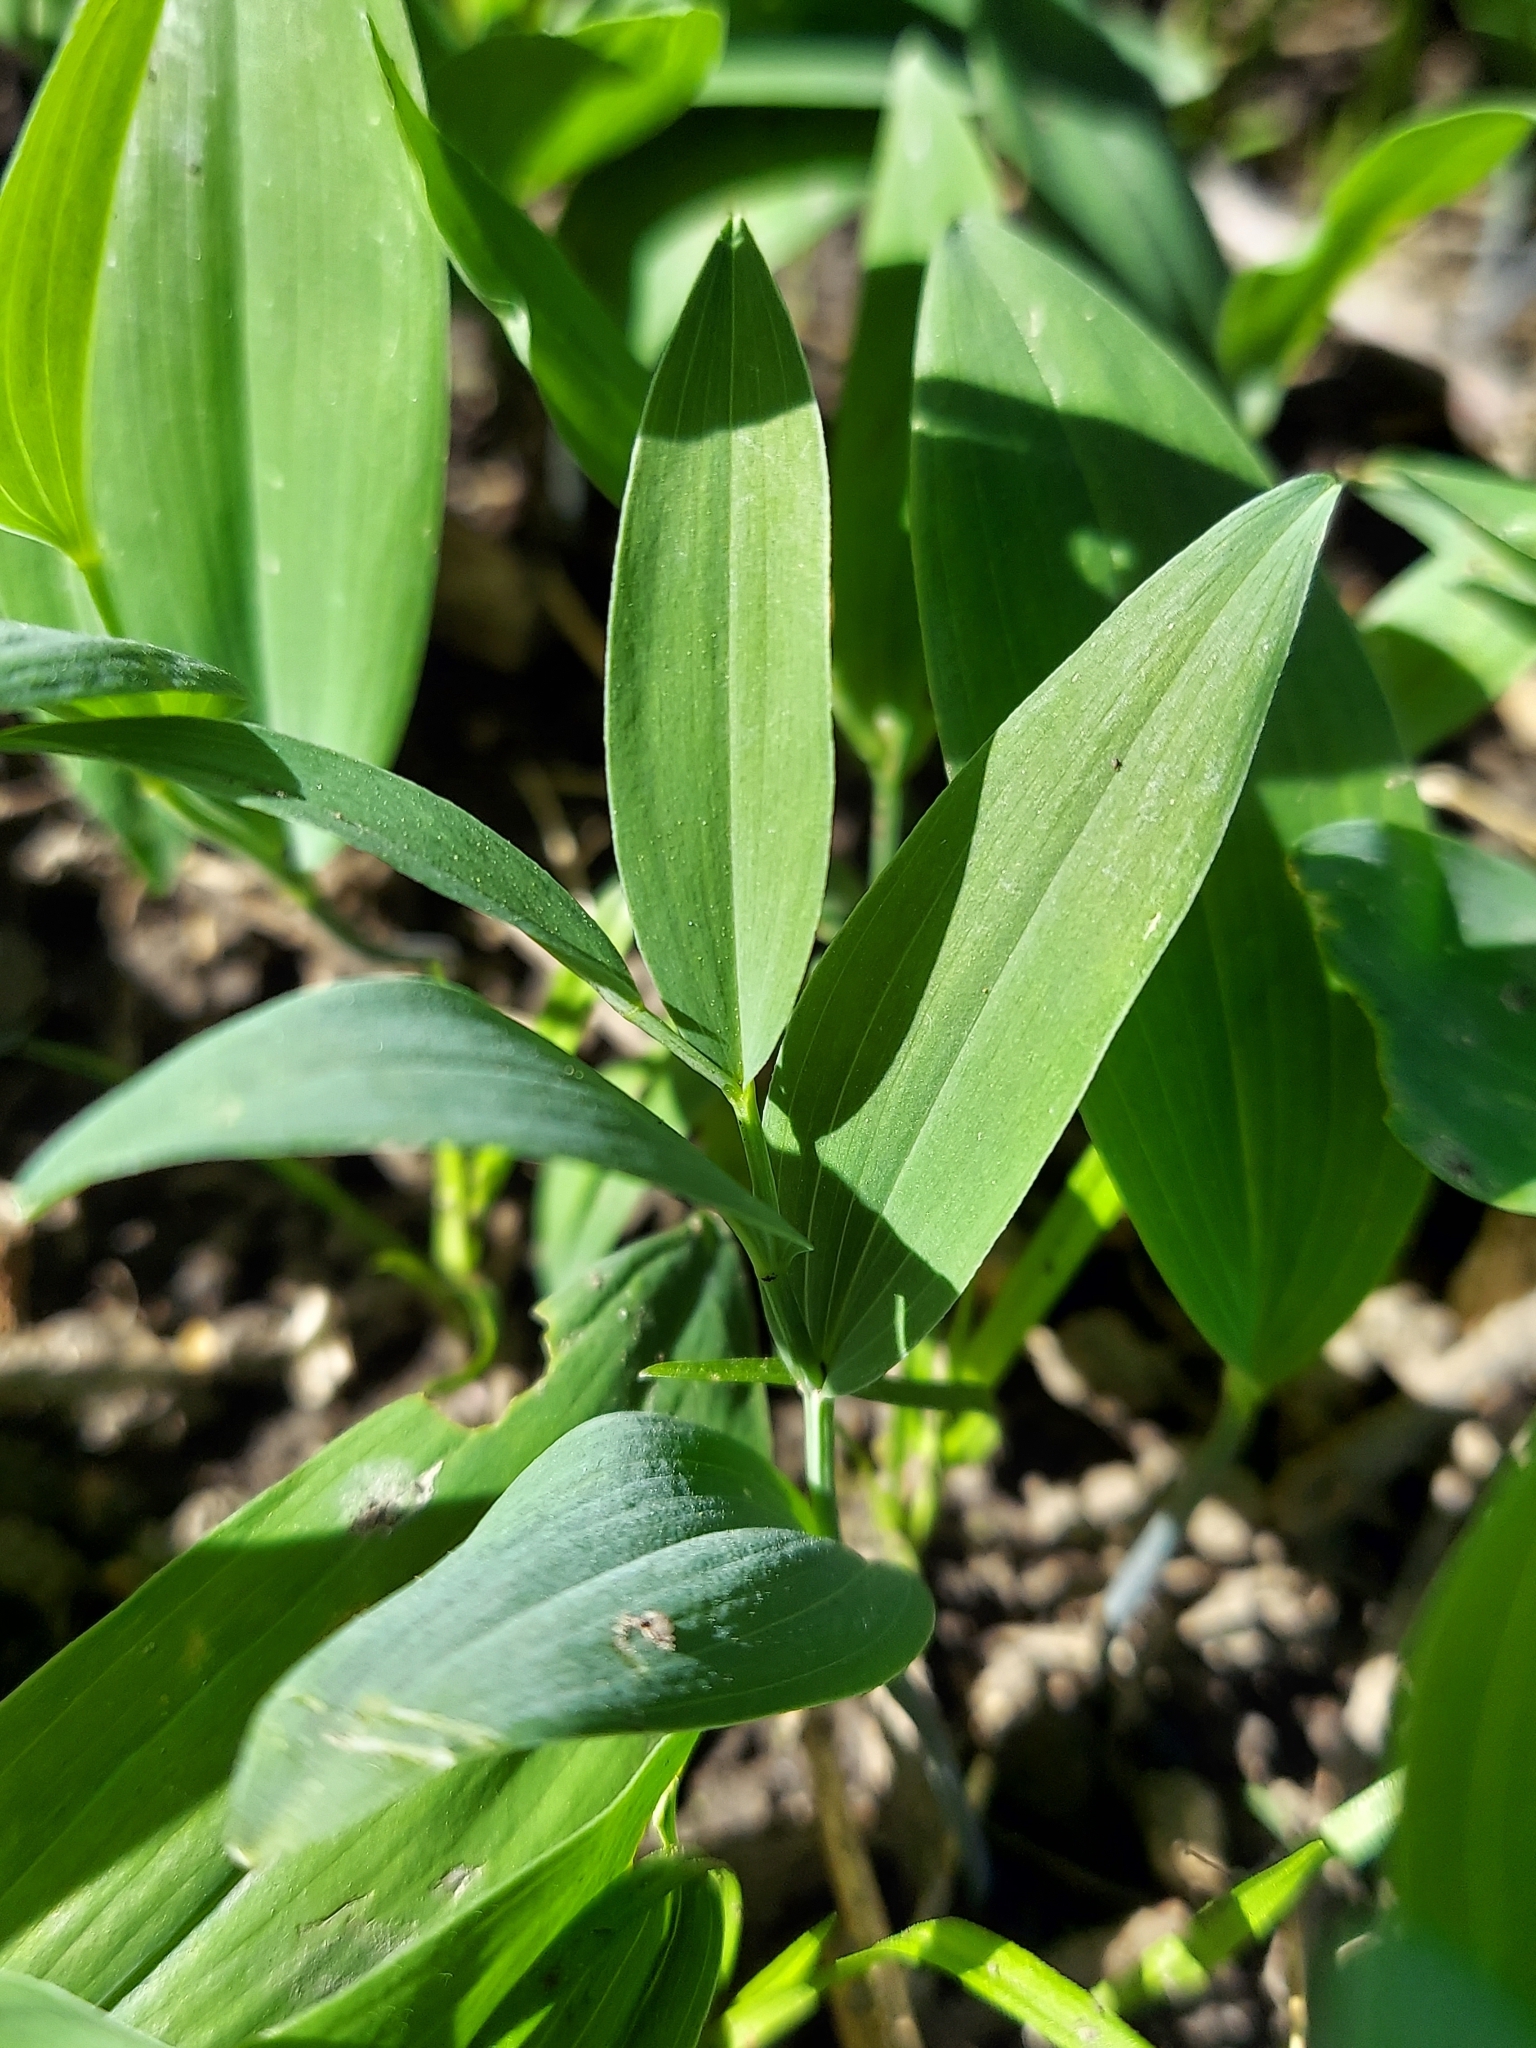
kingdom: Plantae
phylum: Tracheophyta
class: Liliopsida
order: Asparagales
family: Asparagaceae
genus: Polygonatum
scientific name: Polygonatum biflorum
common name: American solomon's-seal
